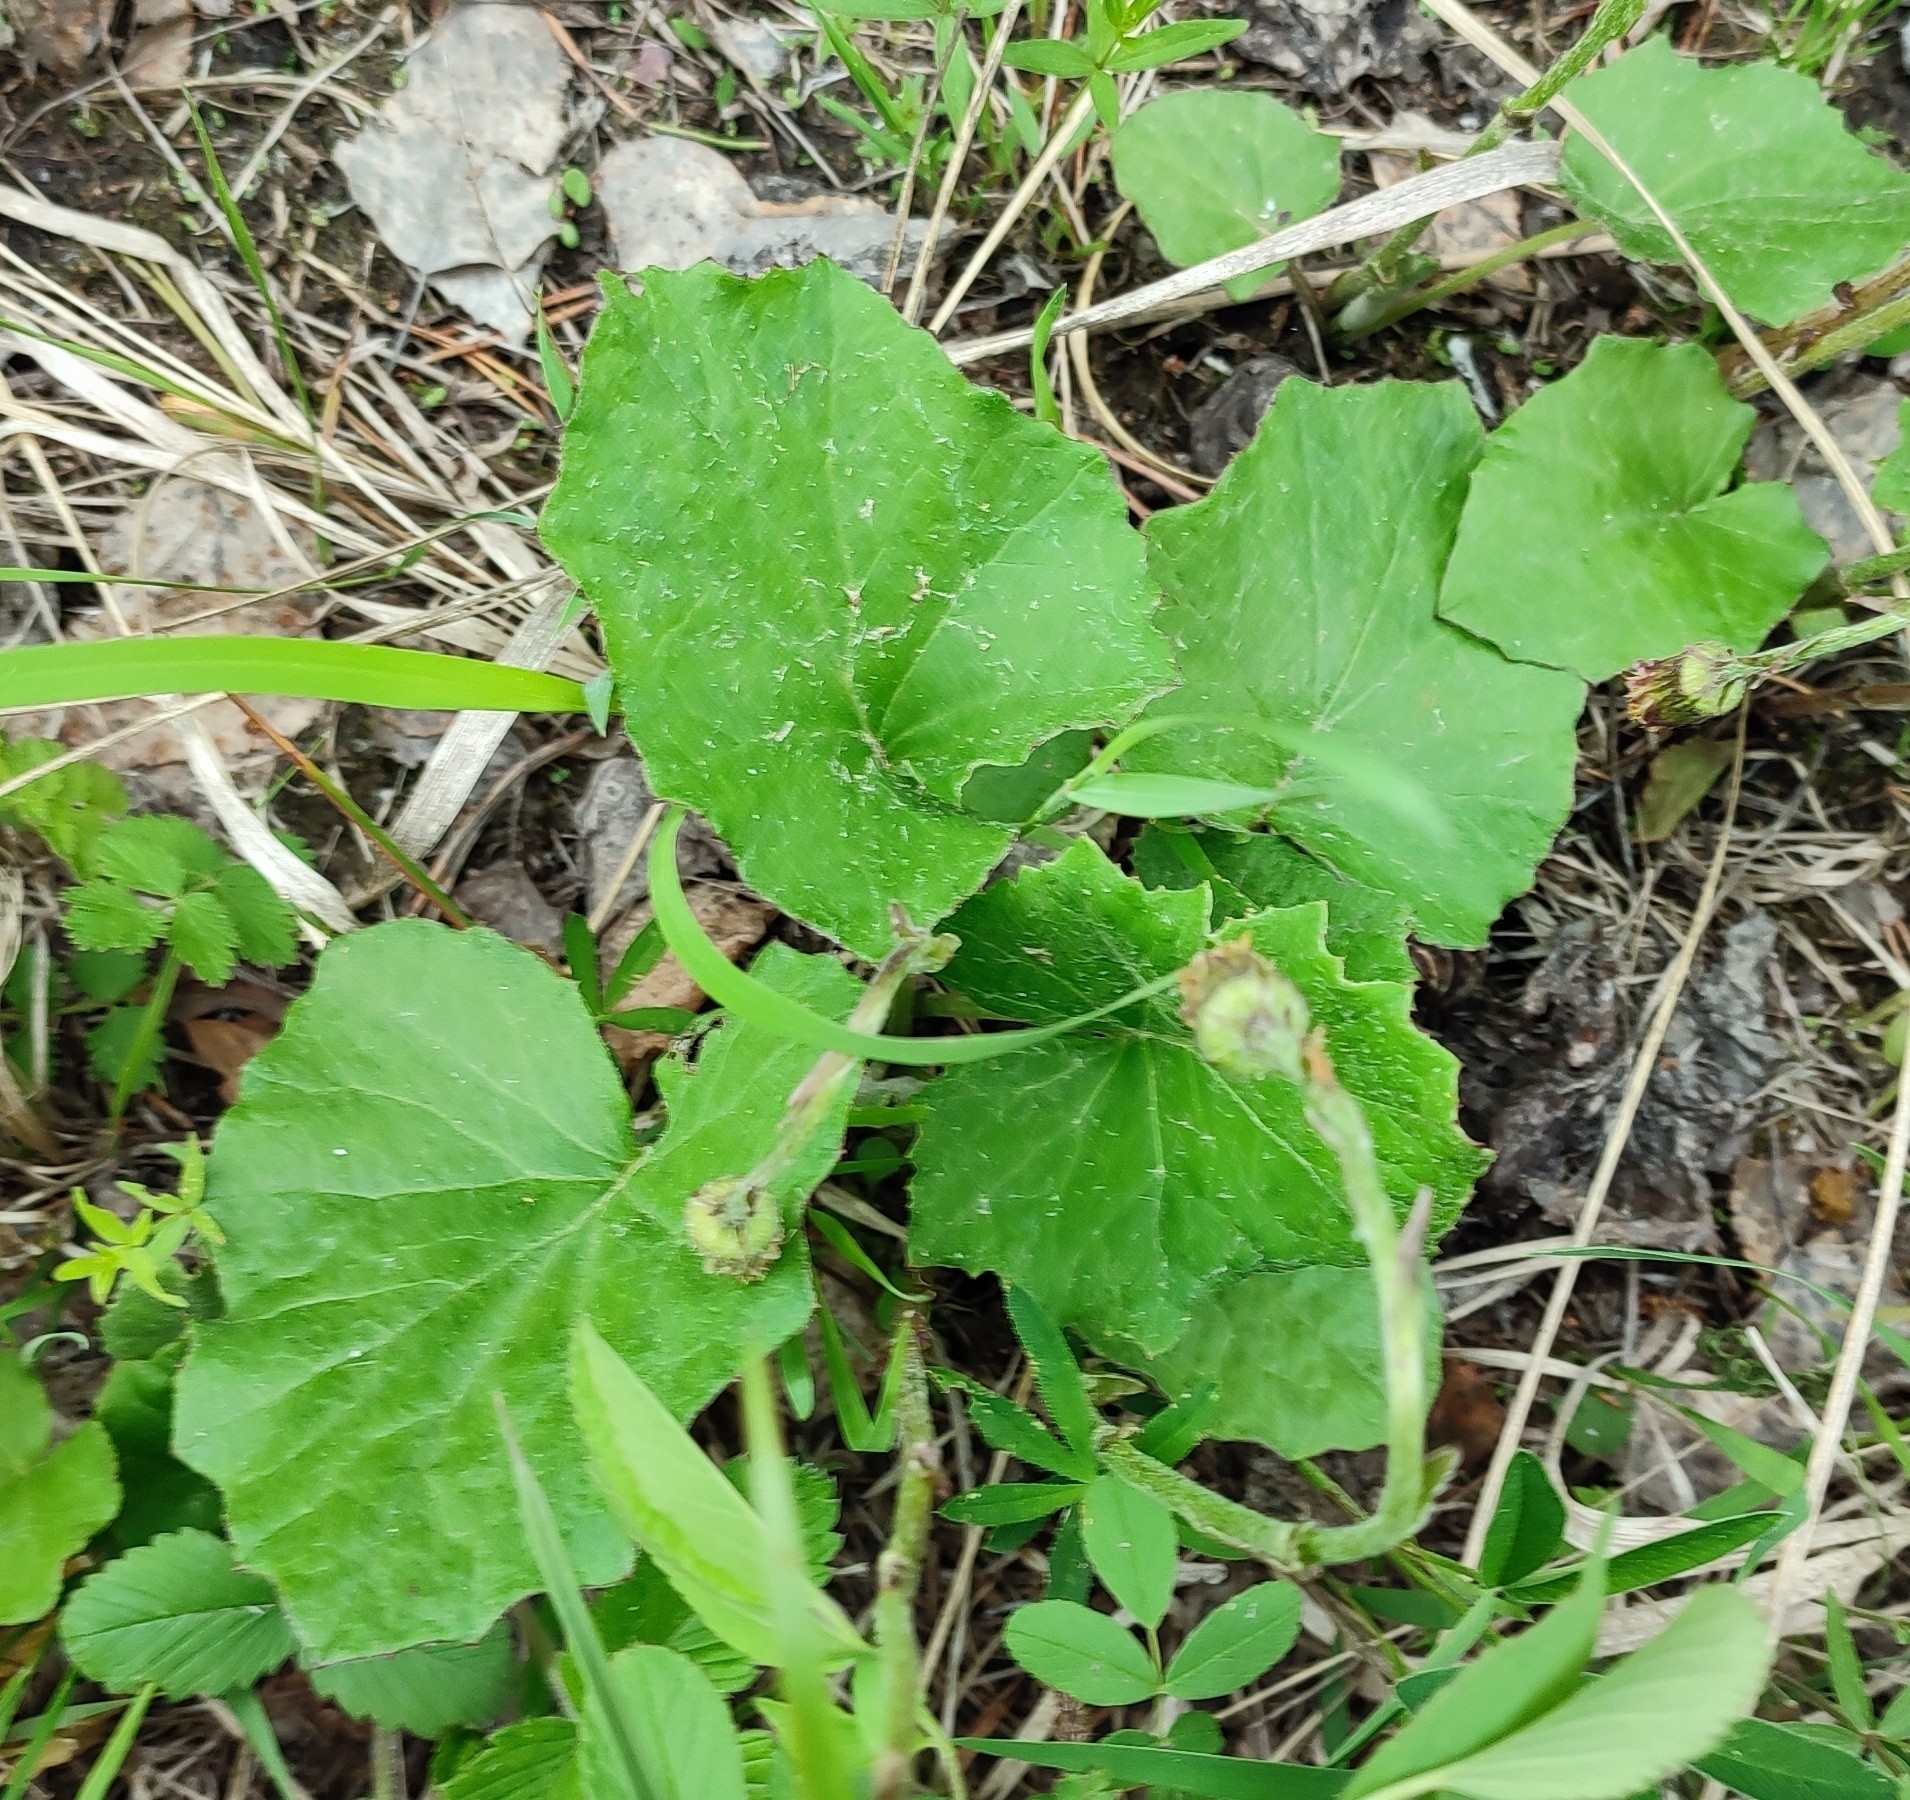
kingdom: Plantae
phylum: Tracheophyta
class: Magnoliopsida
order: Asterales
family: Asteraceae
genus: Tussilago
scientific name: Tussilago farfara
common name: Coltsfoot
